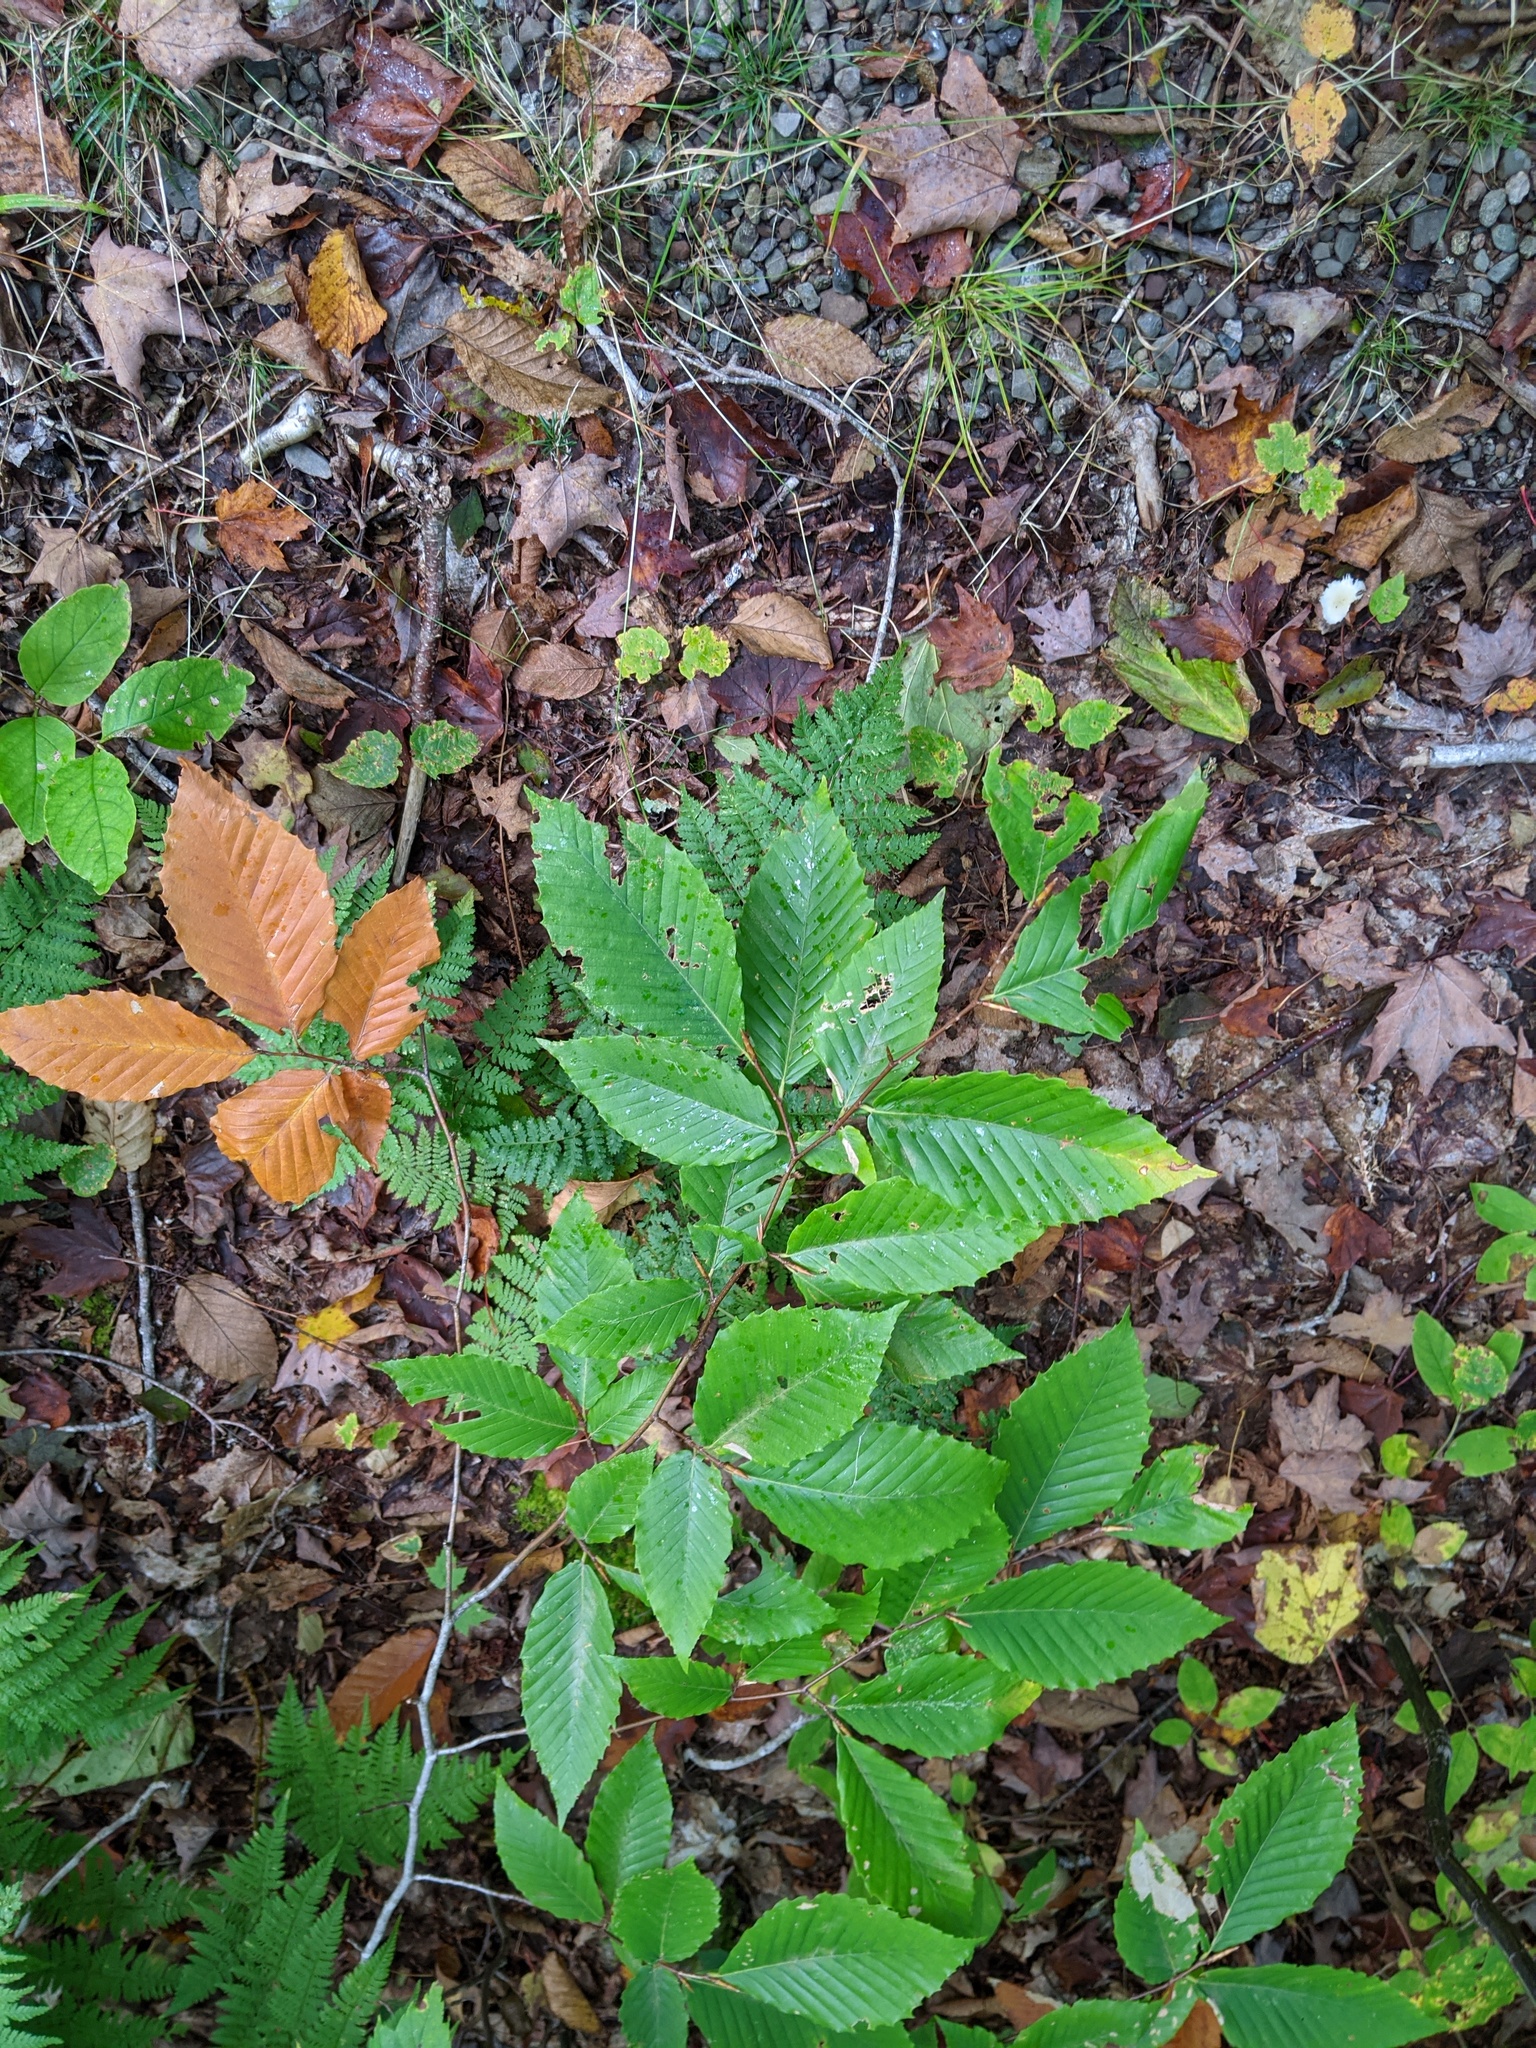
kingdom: Plantae
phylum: Tracheophyta
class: Magnoliopsida
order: Fagales
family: Fagaceae
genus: Fagus
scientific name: Fagus grandifolia
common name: American beech
